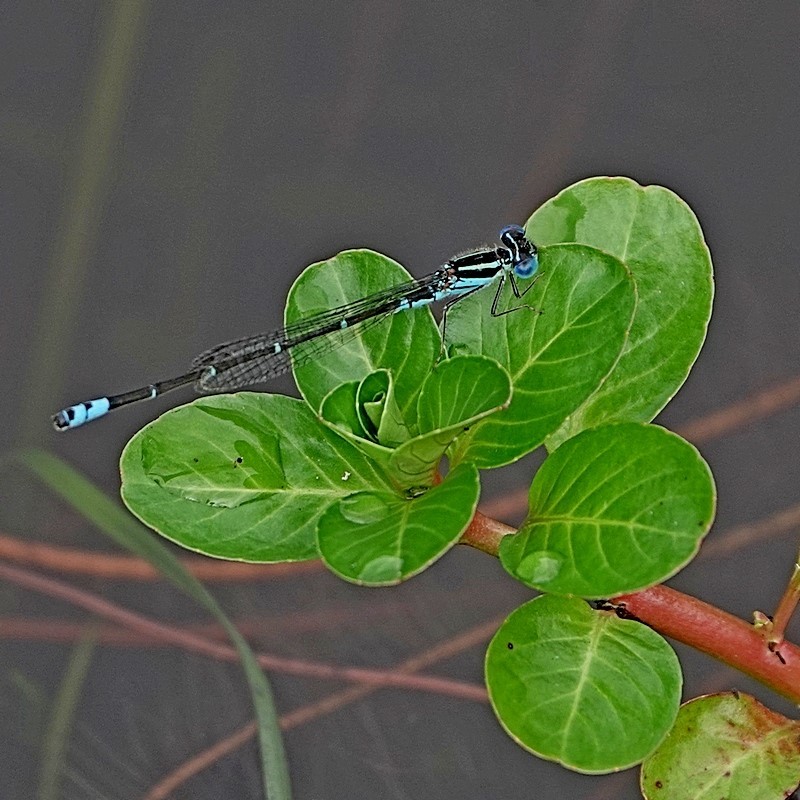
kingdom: Animalia
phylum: Arthropoda
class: Insecta
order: Odonata
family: Coenagrionidae
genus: Austroagrion
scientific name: Austroagrion watsoni
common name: Eastern billabongfly
